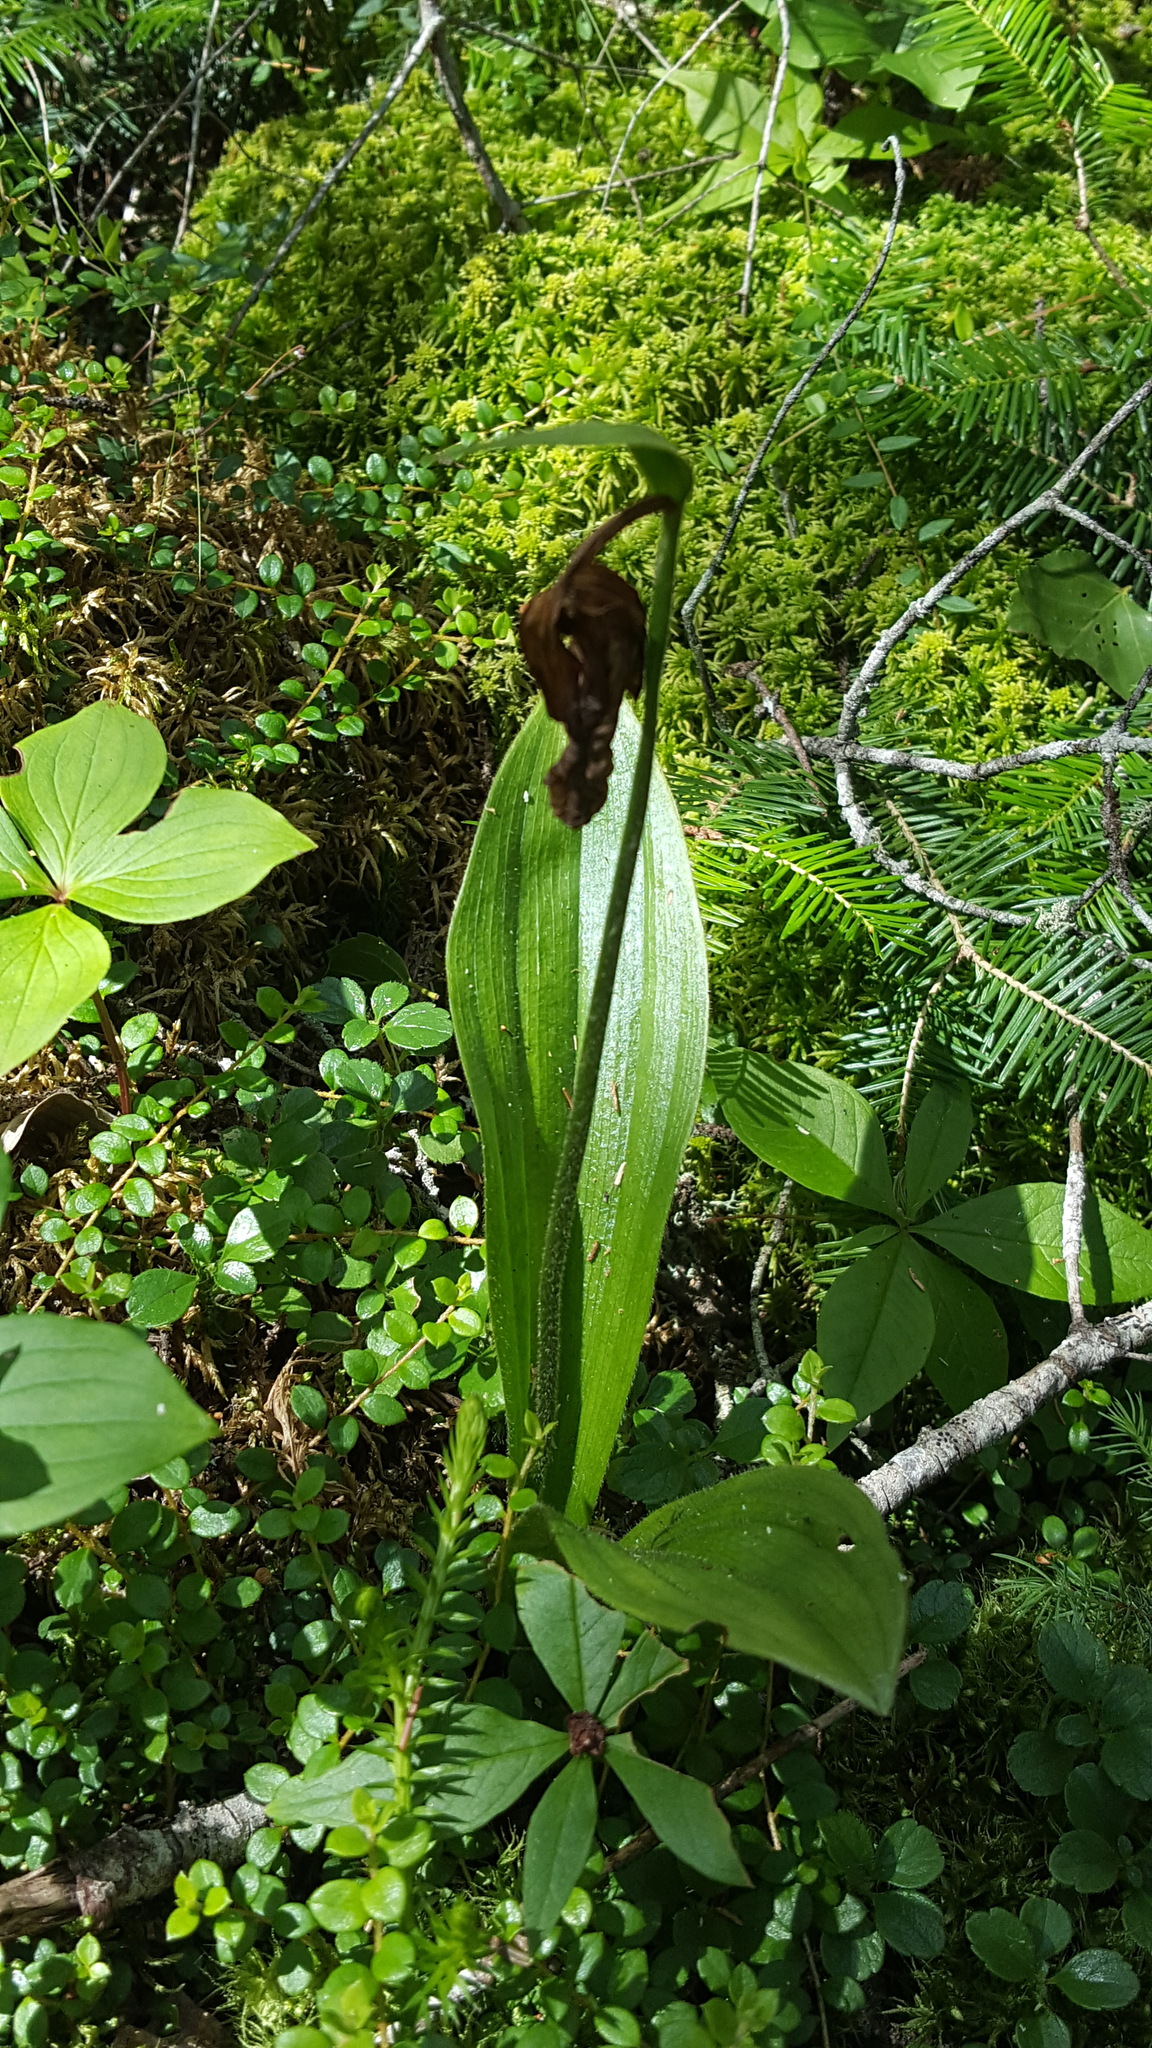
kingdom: Plantae
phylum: Tracheophyta
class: Liliopsida
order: Asparagales
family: Orchidaceae
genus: Cypripedium
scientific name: Cypripedium acaule
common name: Pink lady's-slipper
